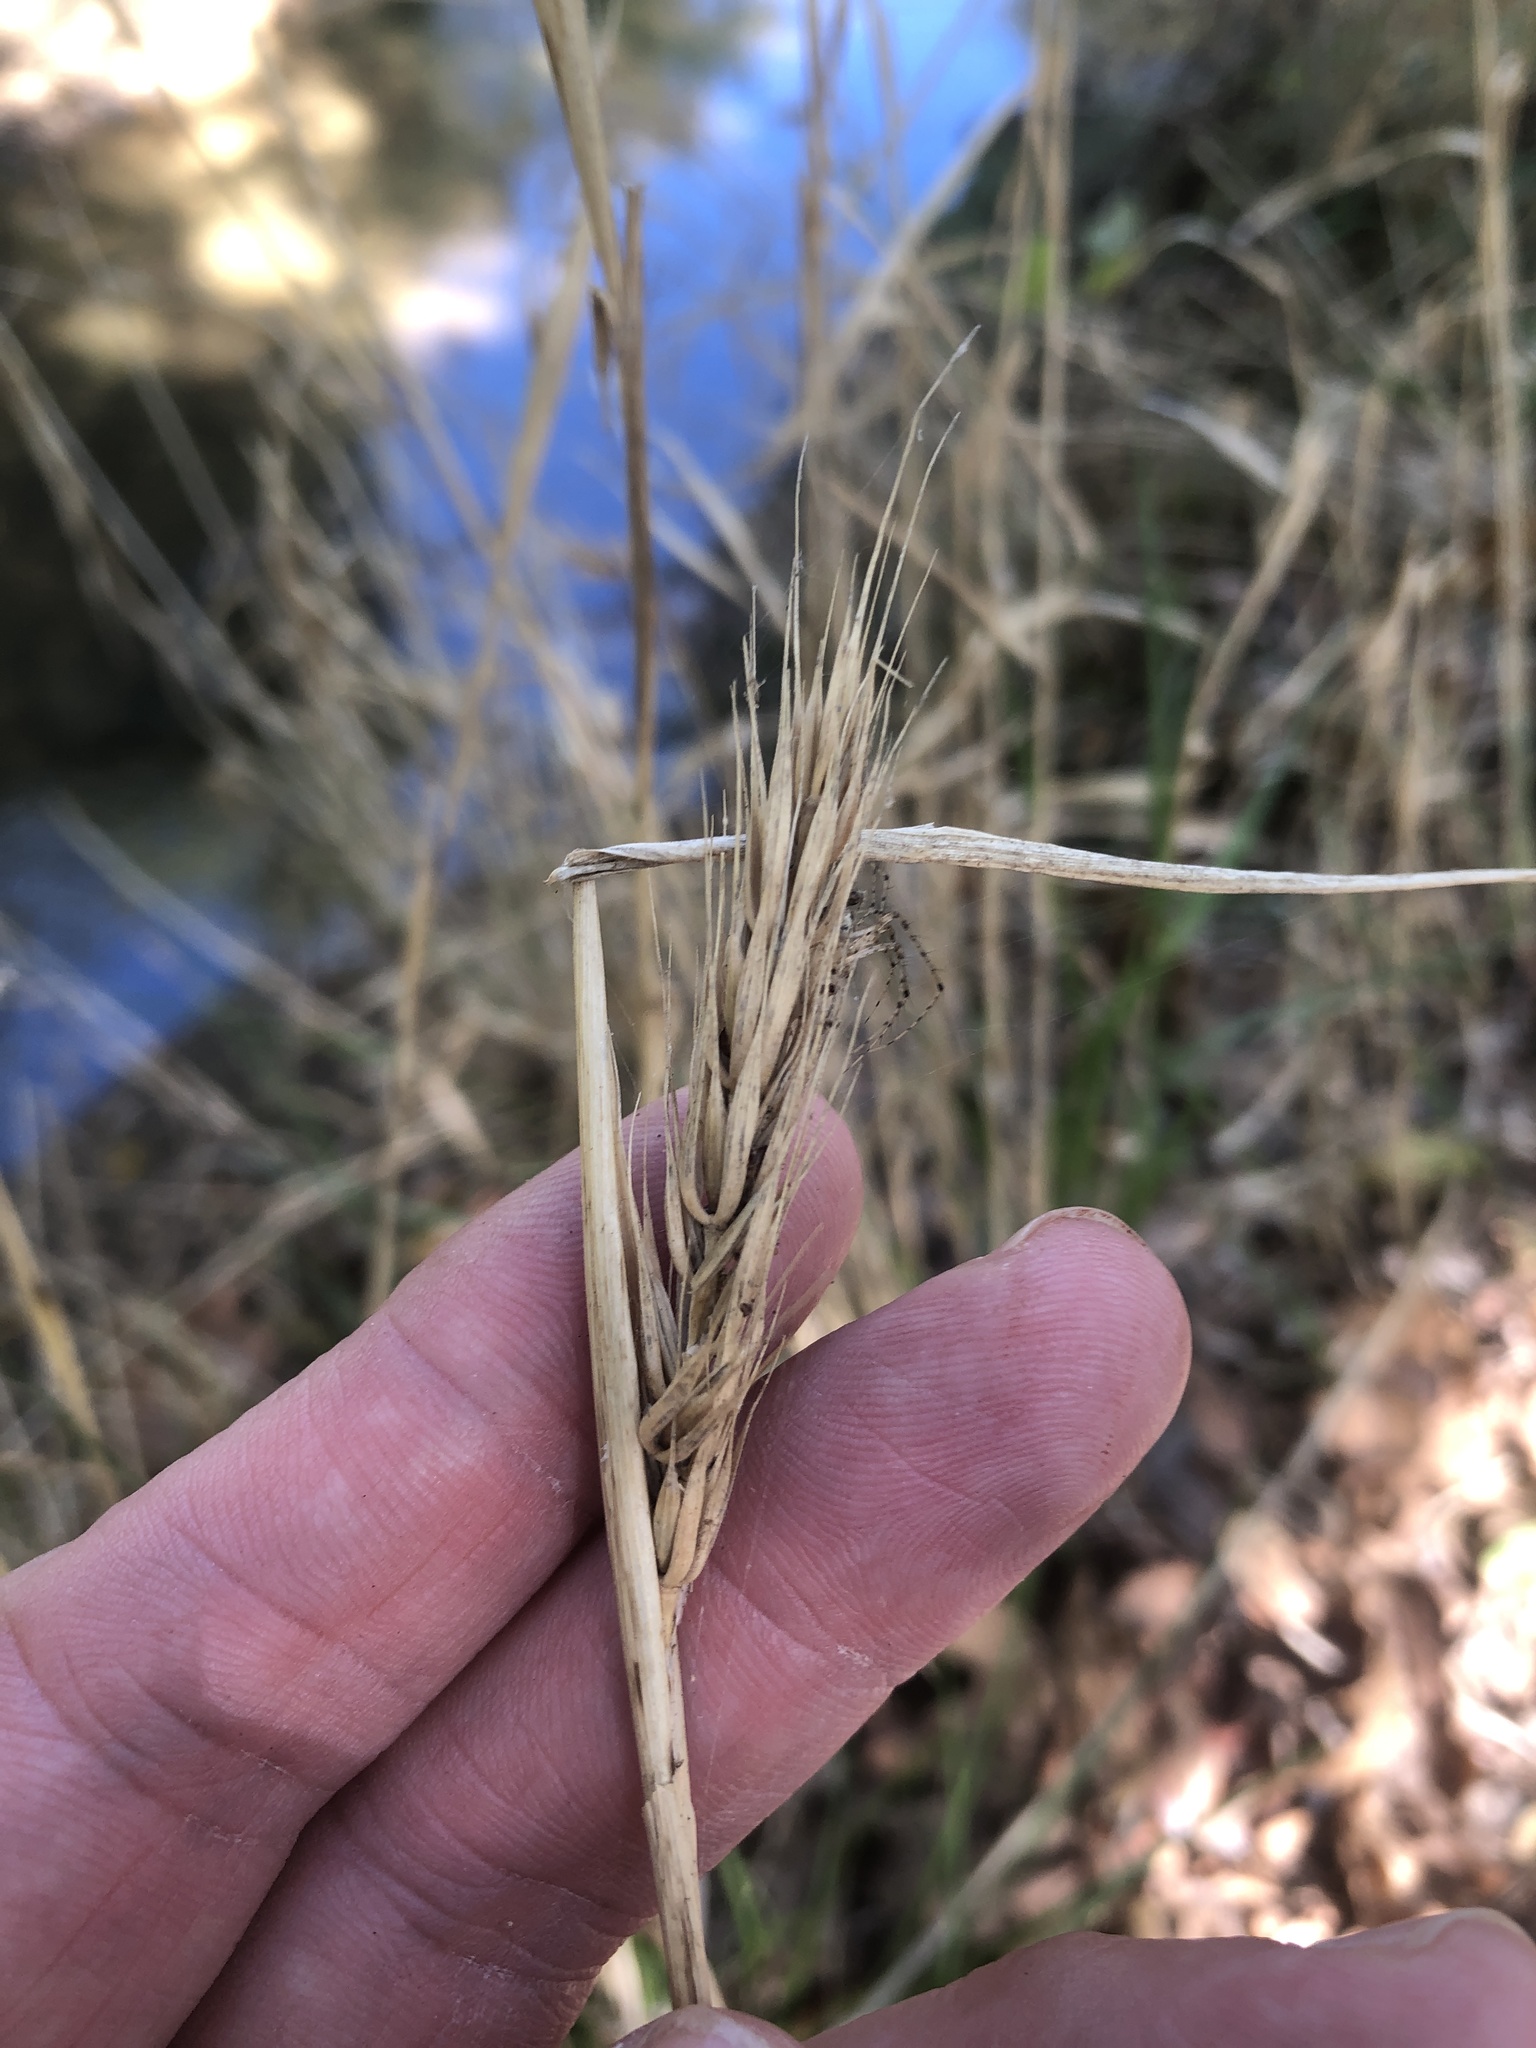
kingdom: Plantae
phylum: Tracheophyta
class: Liliopsida
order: Poales
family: Poaceae
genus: Elymus
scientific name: Elymus virginicus
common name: Common eastern wildrye
